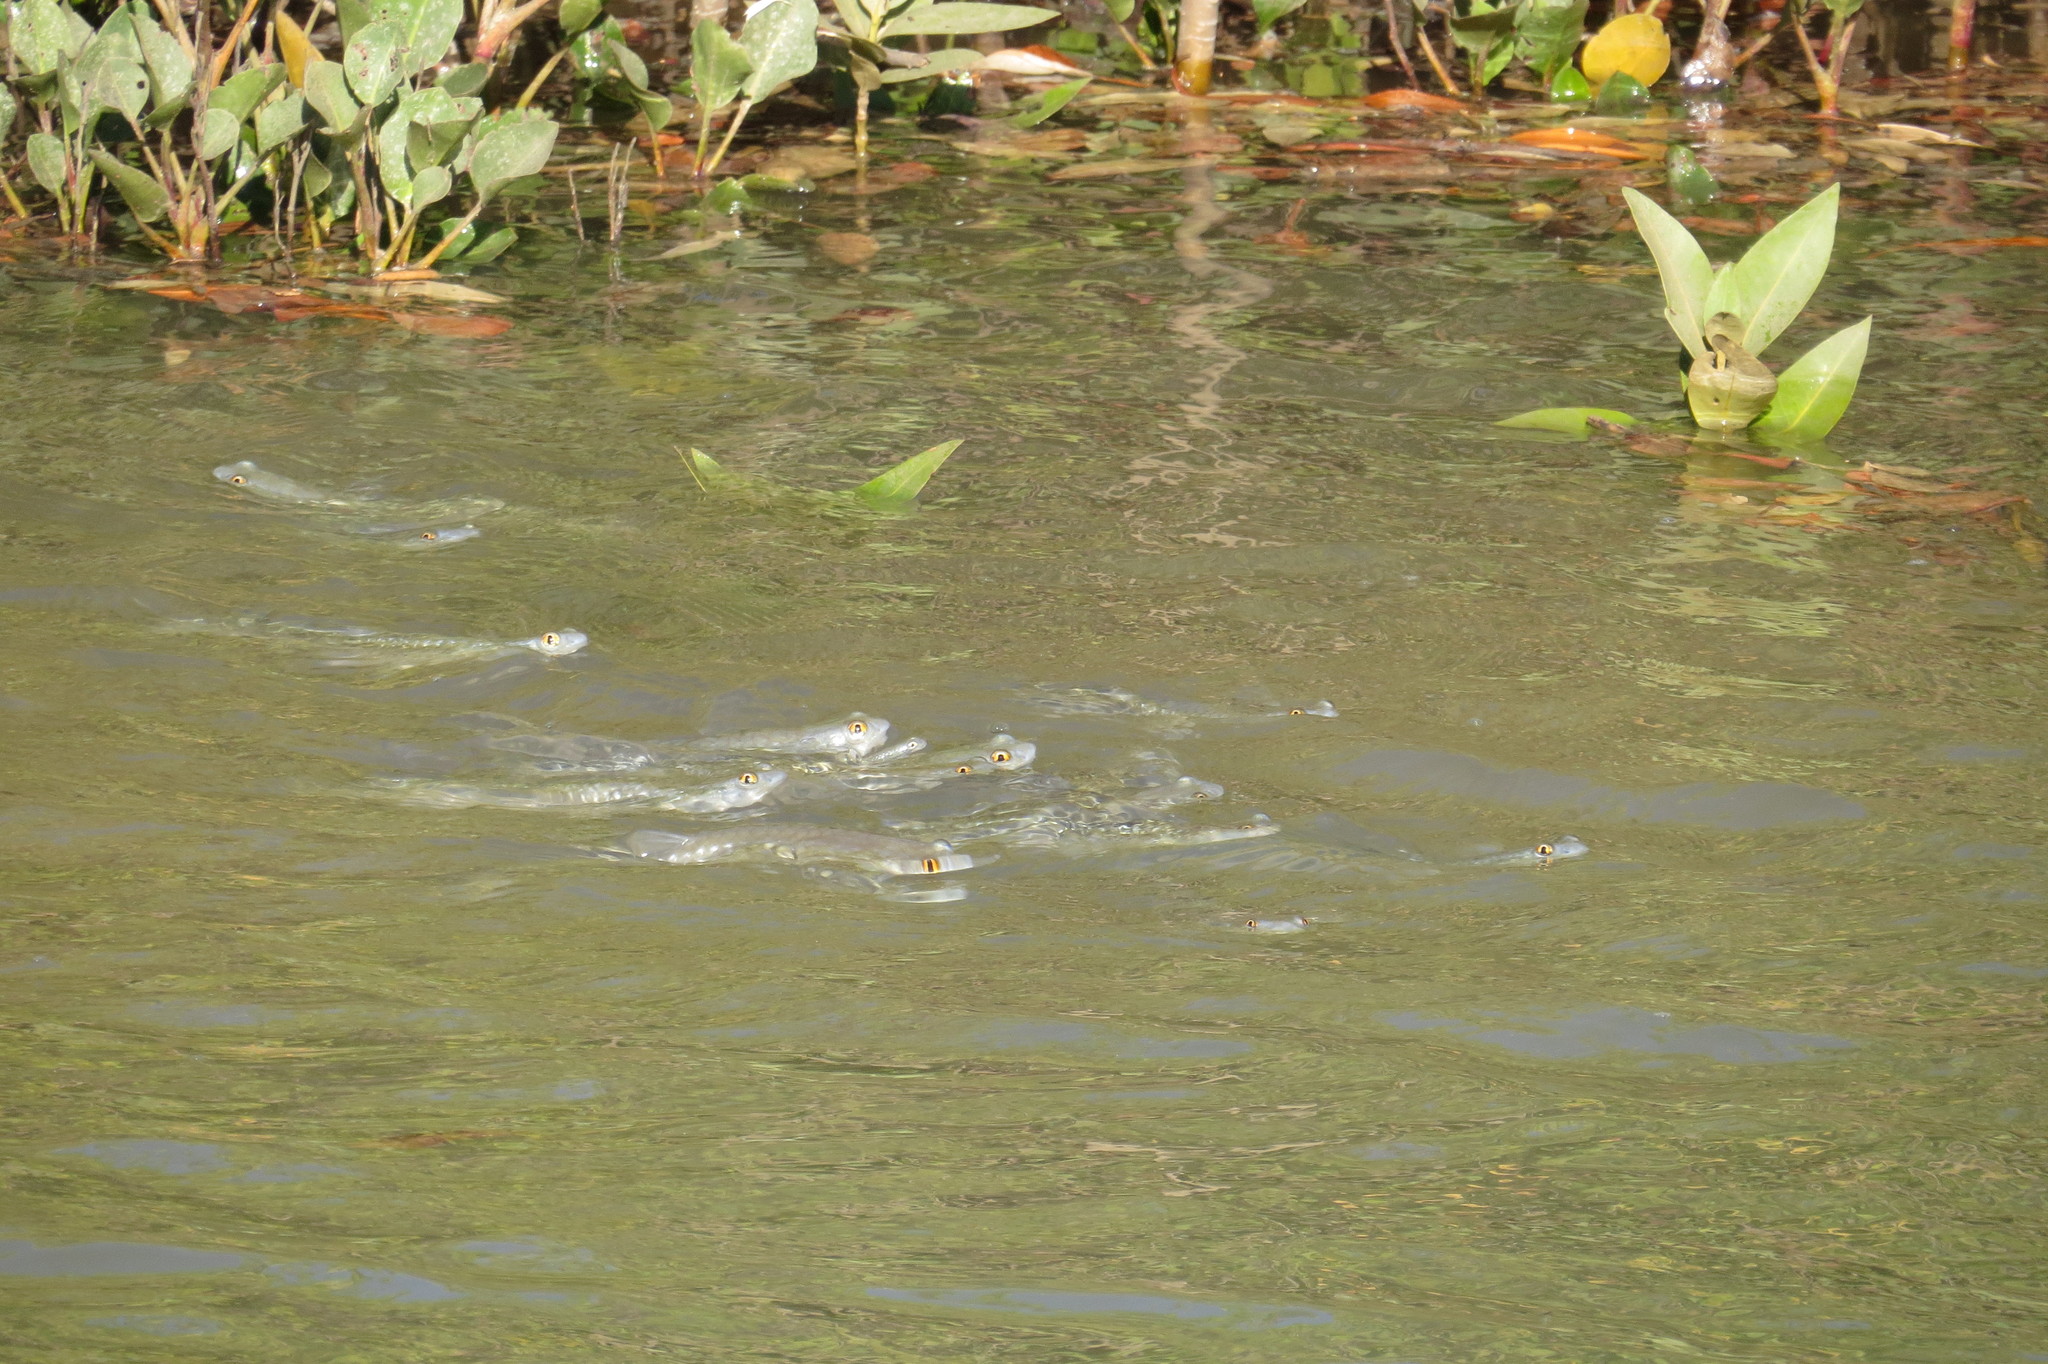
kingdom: Animalia
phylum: Chordata
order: Mugiliformes
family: Mugilidae
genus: Squalomugil
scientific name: Squalomugil nasutus
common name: Mud mullet
